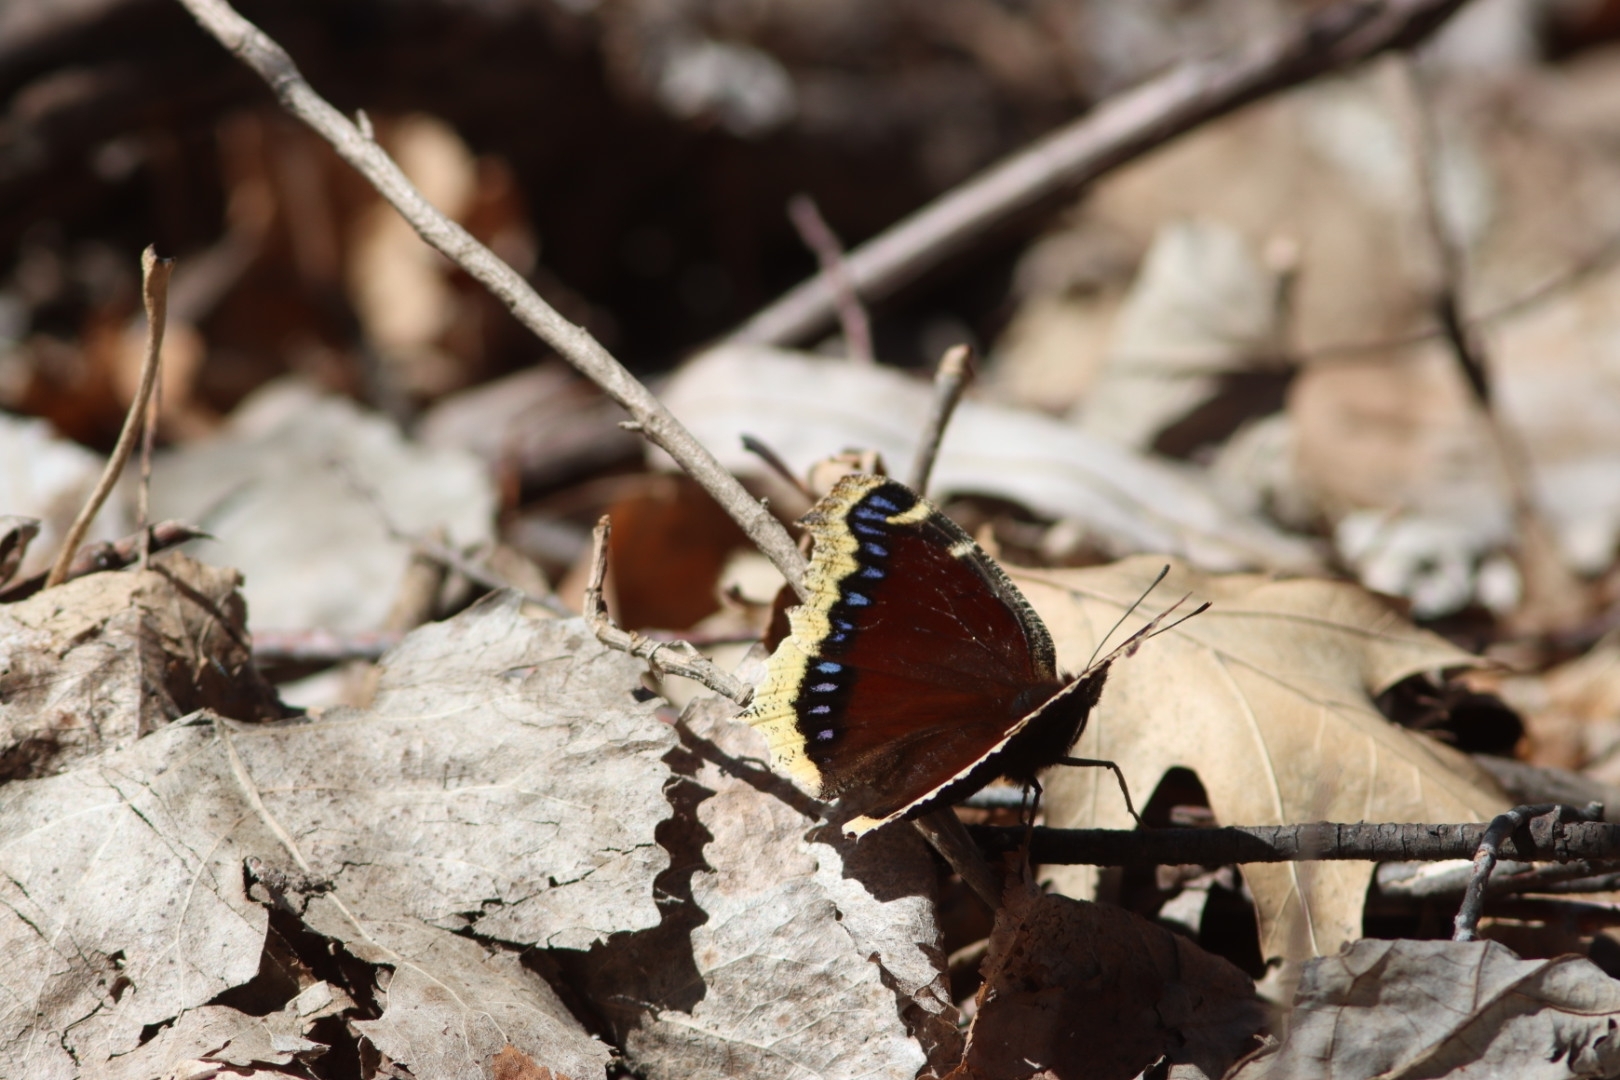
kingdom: Animalia
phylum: Arthropoda
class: Insecta
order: Lepidoptera
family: Nymphalidae
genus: Nymphalis
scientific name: Nymphalis antiopa
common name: Camberwell beauty
